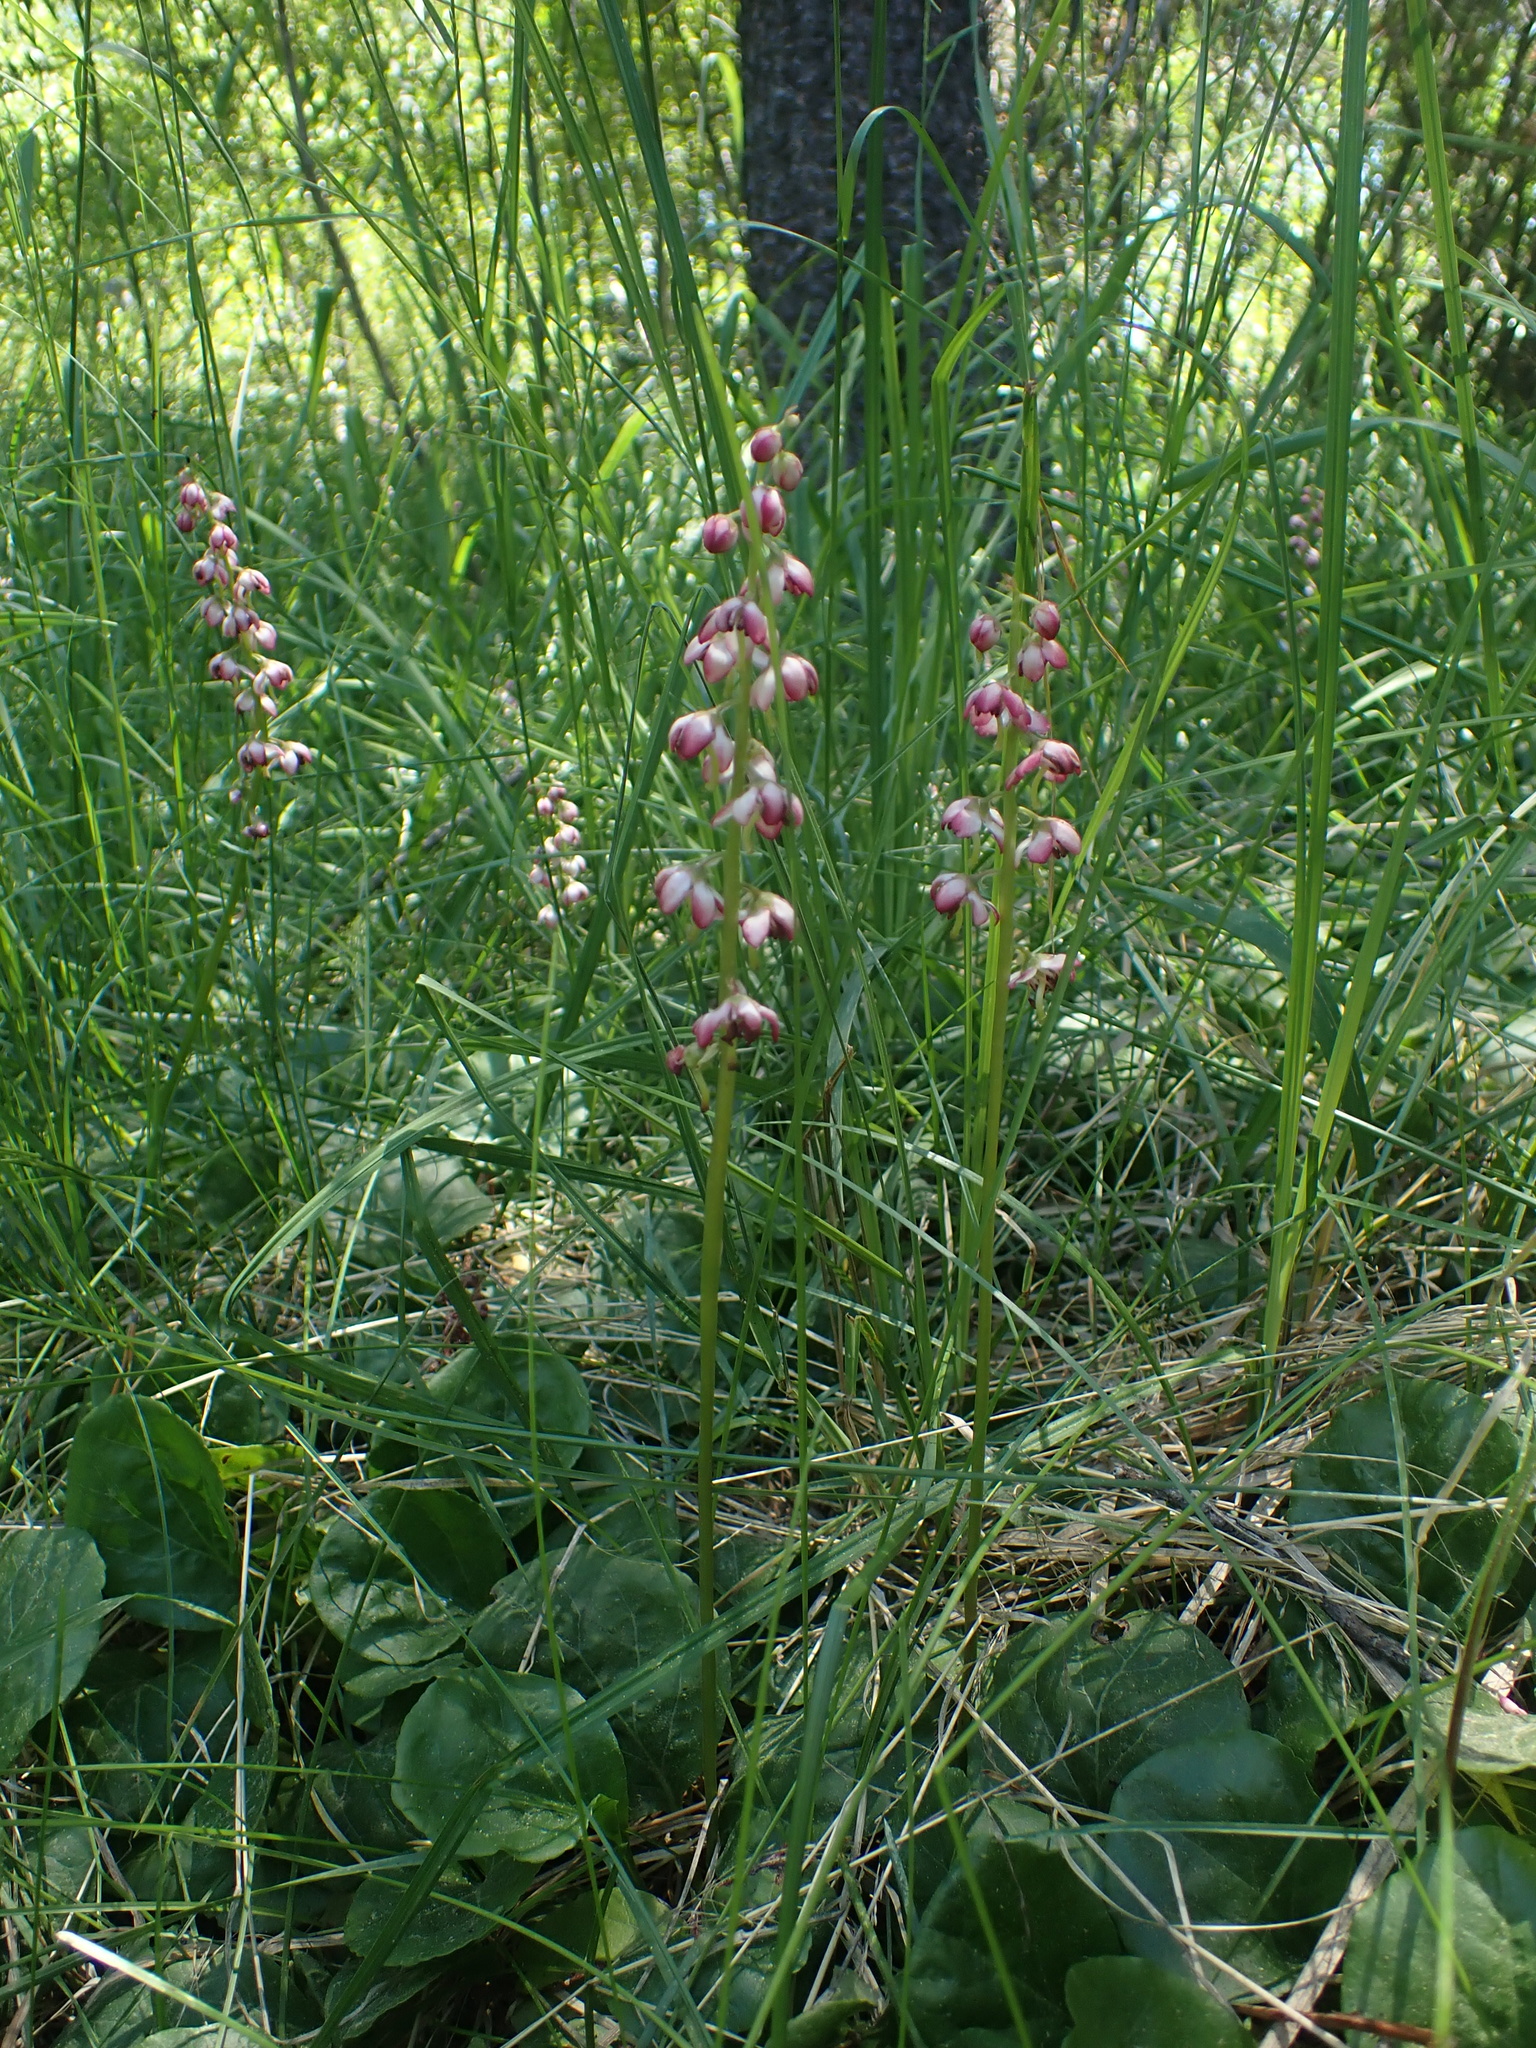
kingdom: Plantae
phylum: Tracheophyta
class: Magnoliopsida
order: Ericales
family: Ericaceae
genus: Pyrola
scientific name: Pyrola asarifolia
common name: Bog wintergreen
